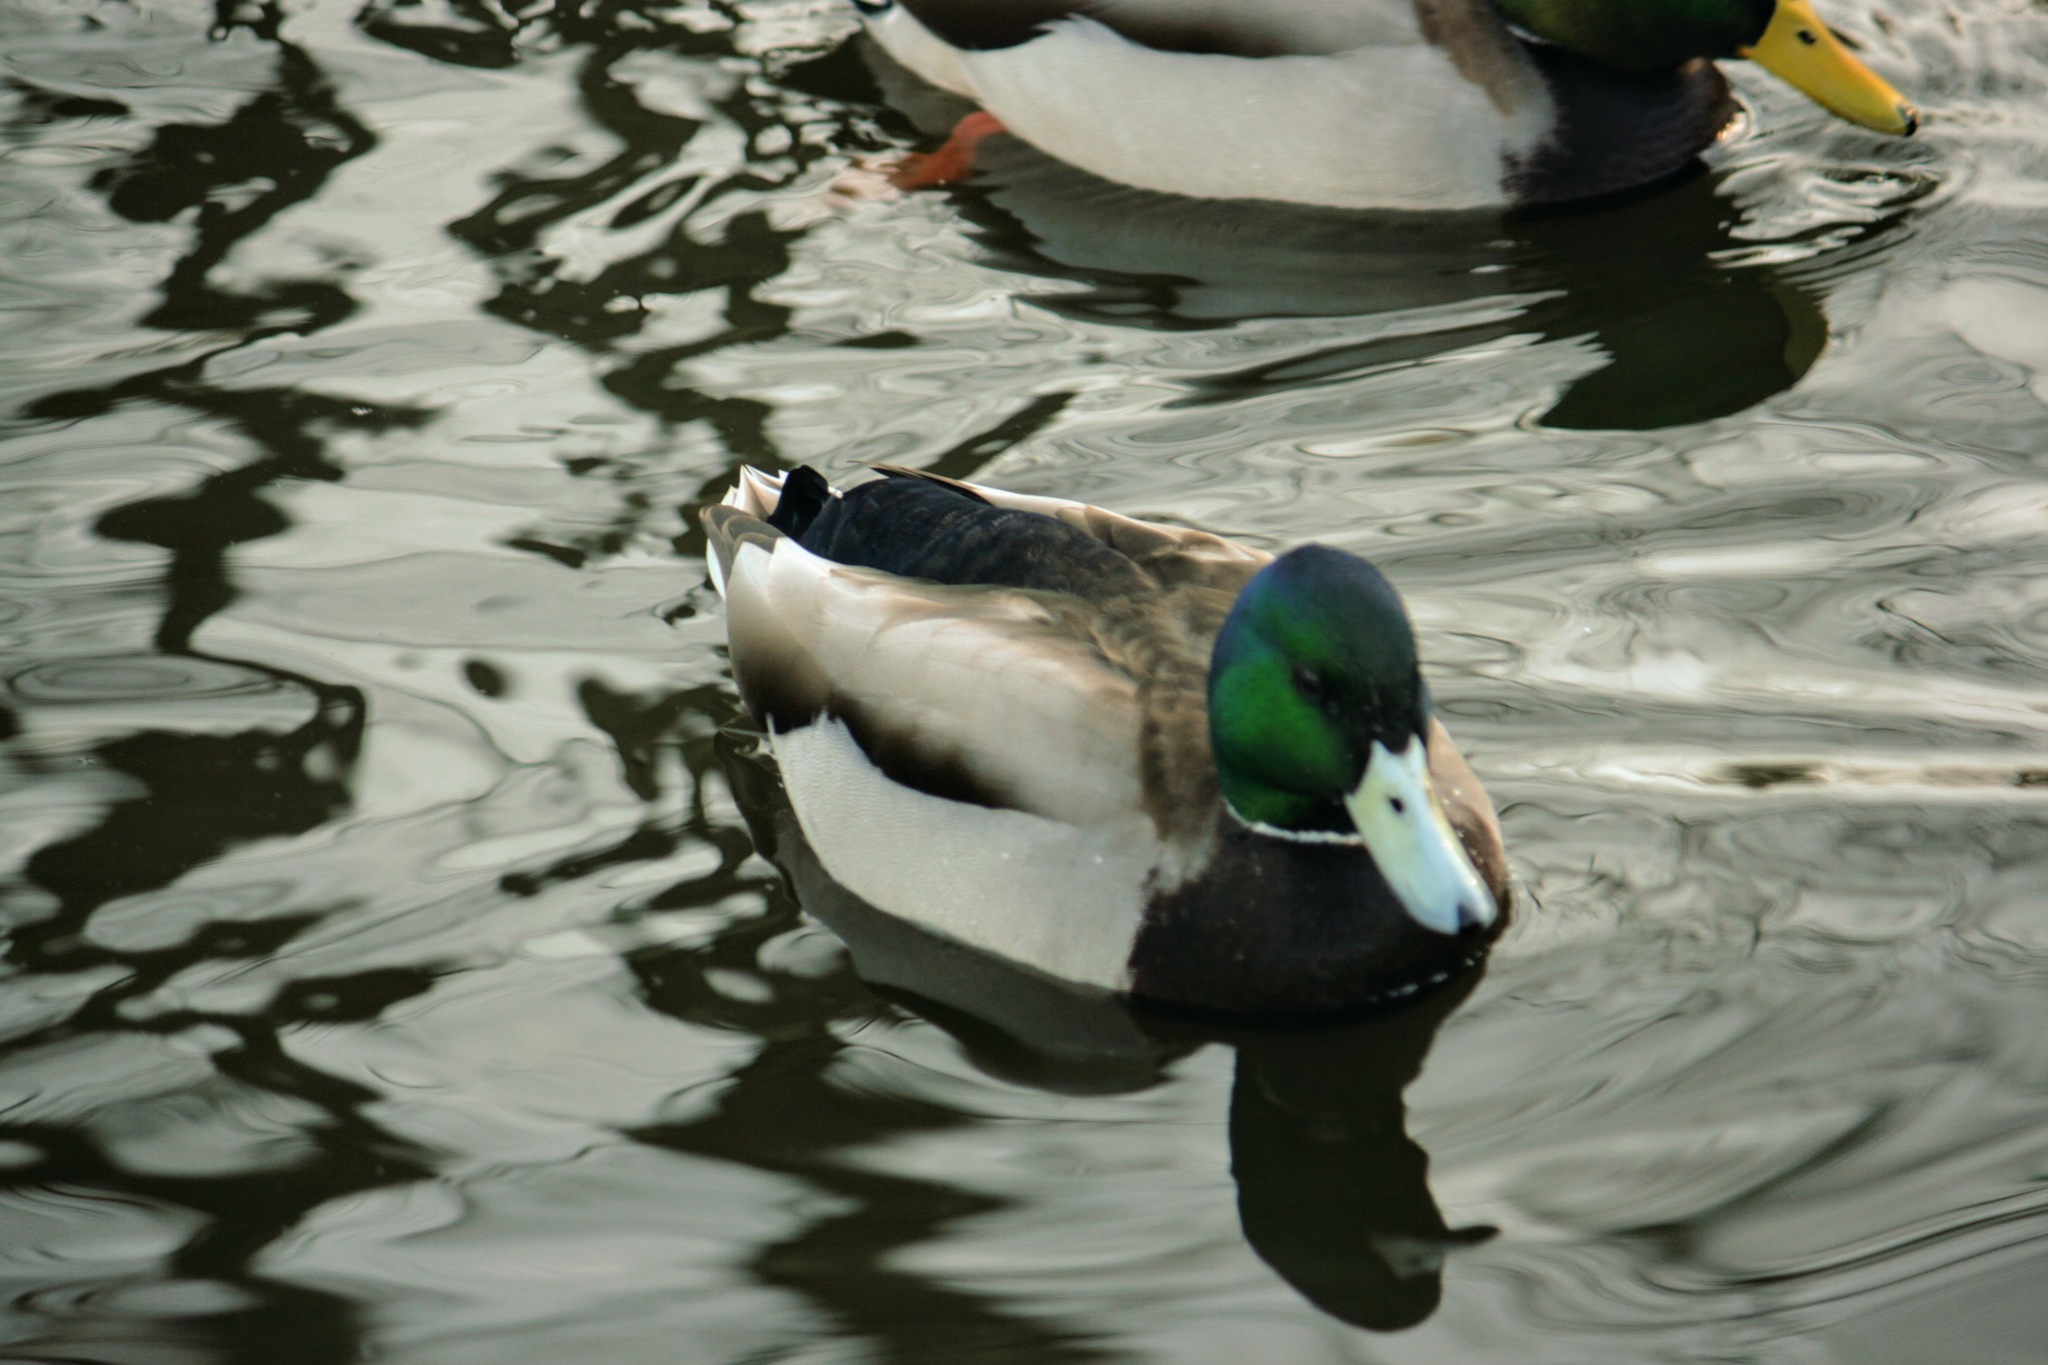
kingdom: Animalia
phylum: Chordata
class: Aves
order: Anseriformes
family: Anatidae
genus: Anas
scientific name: Anas platyrhynchos
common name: Mallard
